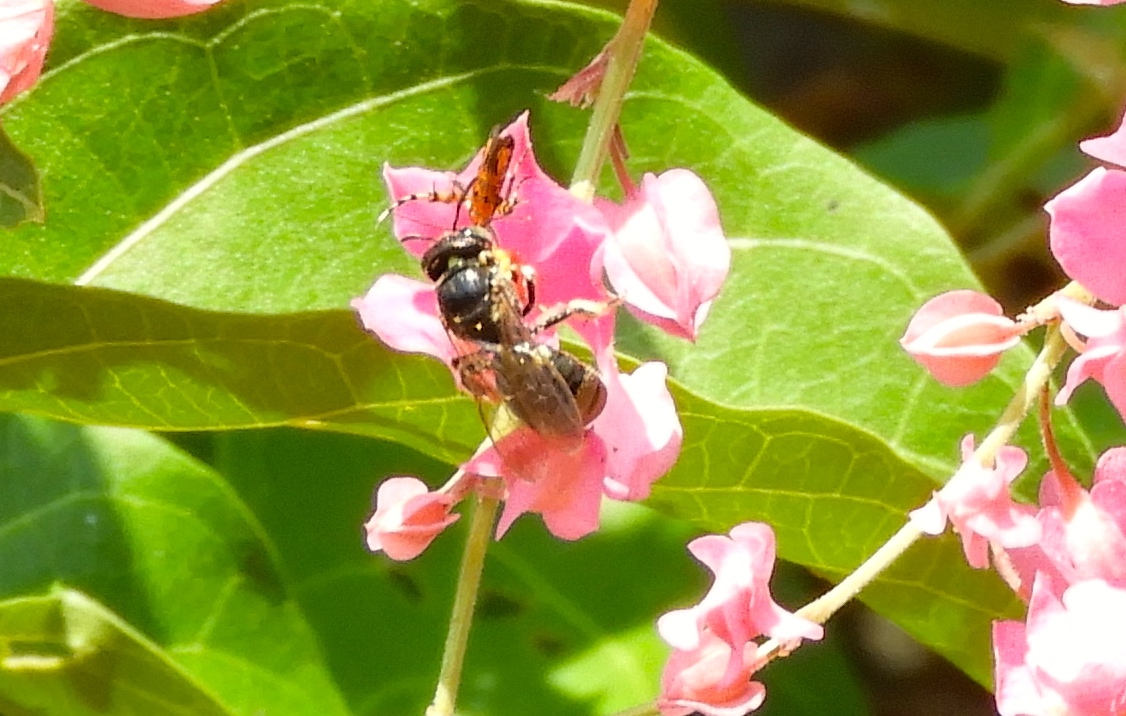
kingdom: Animalia
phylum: Arthropoda
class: Insecta
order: Hymenoptera
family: Apidae
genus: Ceratina
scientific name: Ceratina
